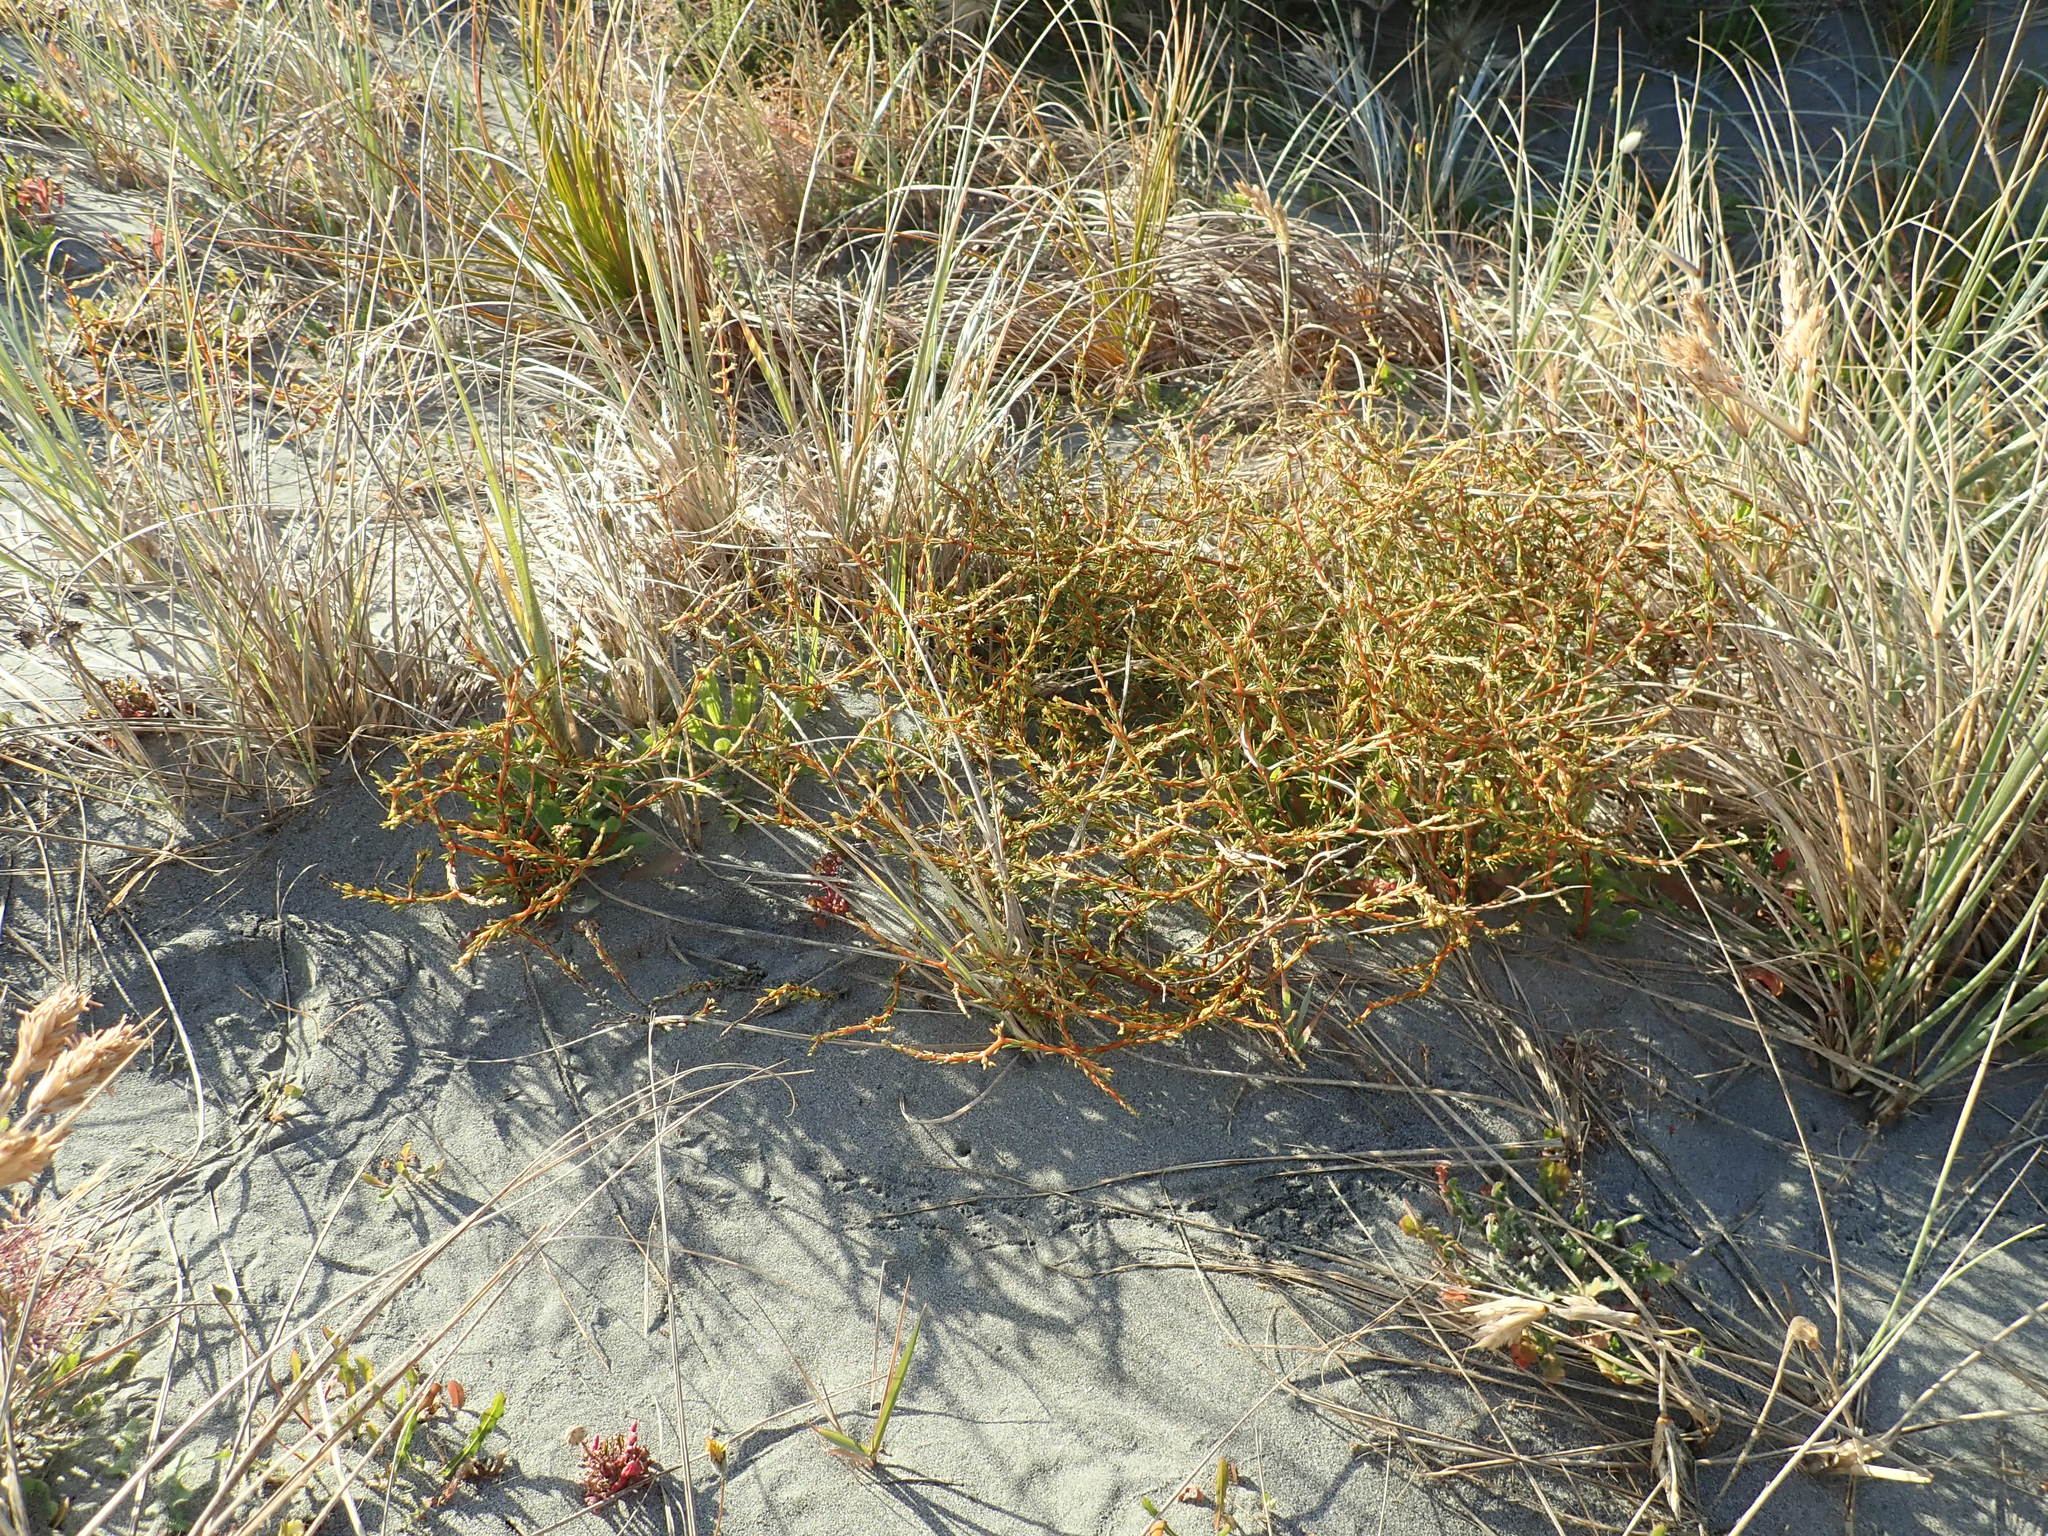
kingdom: Plantae
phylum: Tracheophyta
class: Magnoliopsida
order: Gentianales
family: Rubiaceae
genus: Coprosma
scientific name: Coprosma acerosa
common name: Sand coprosma
